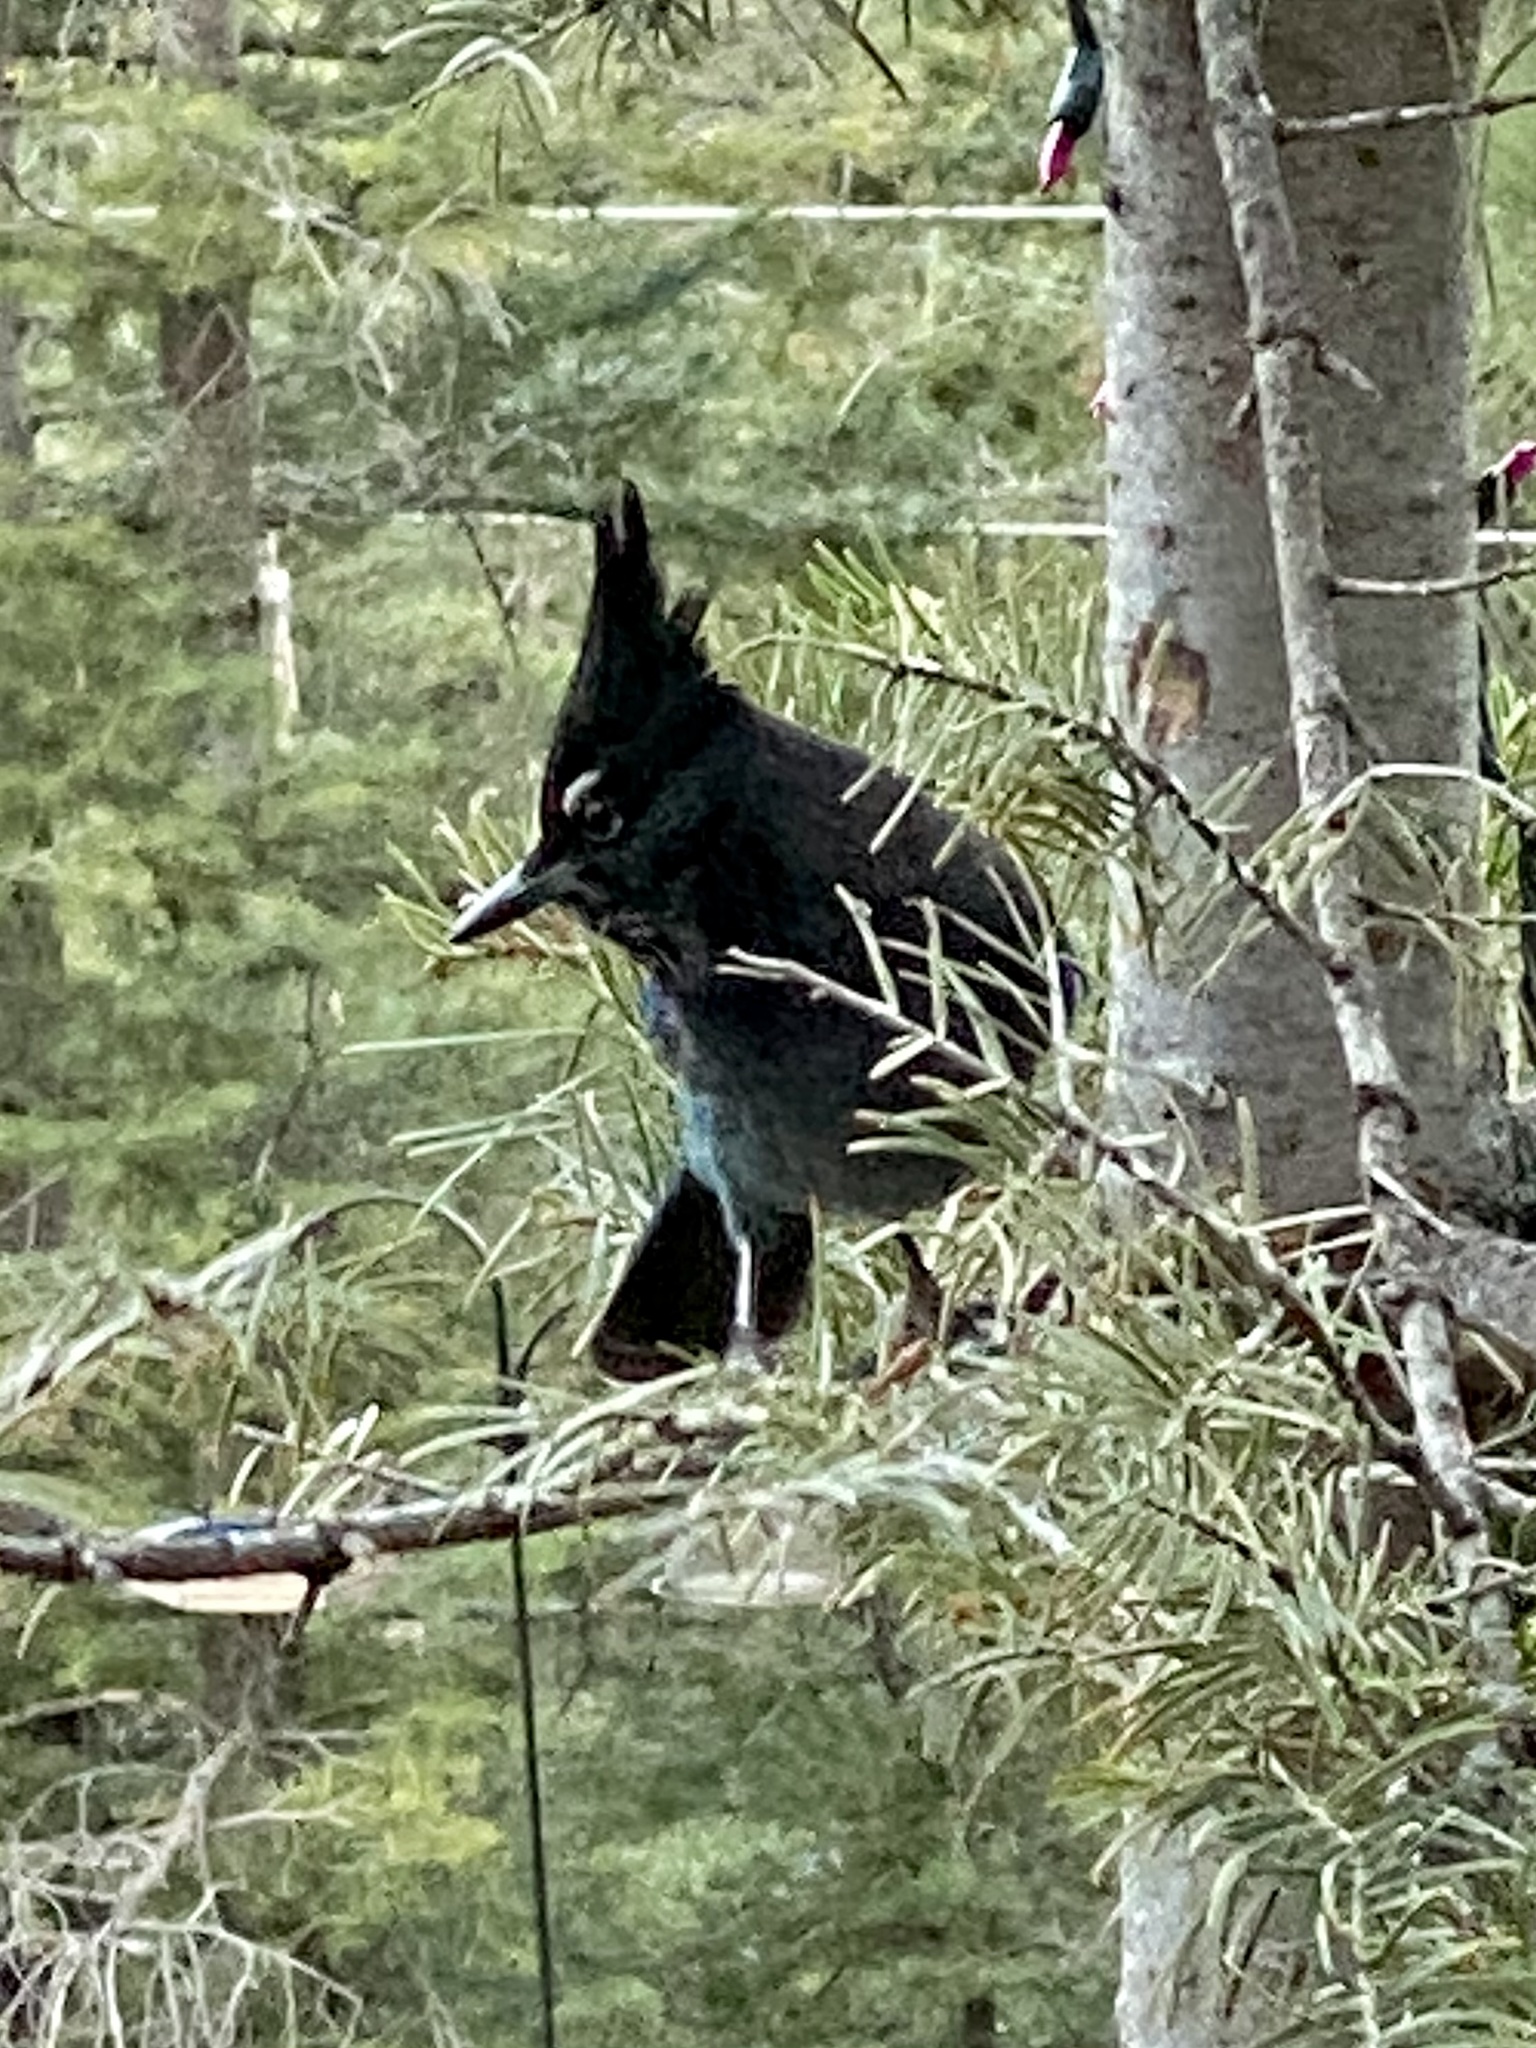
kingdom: Animalia
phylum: Chordata
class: Aves
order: Passeriformes
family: Corvidae
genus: Cyanocitta
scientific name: Cyanocitta stelleri
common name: Steller's jay
